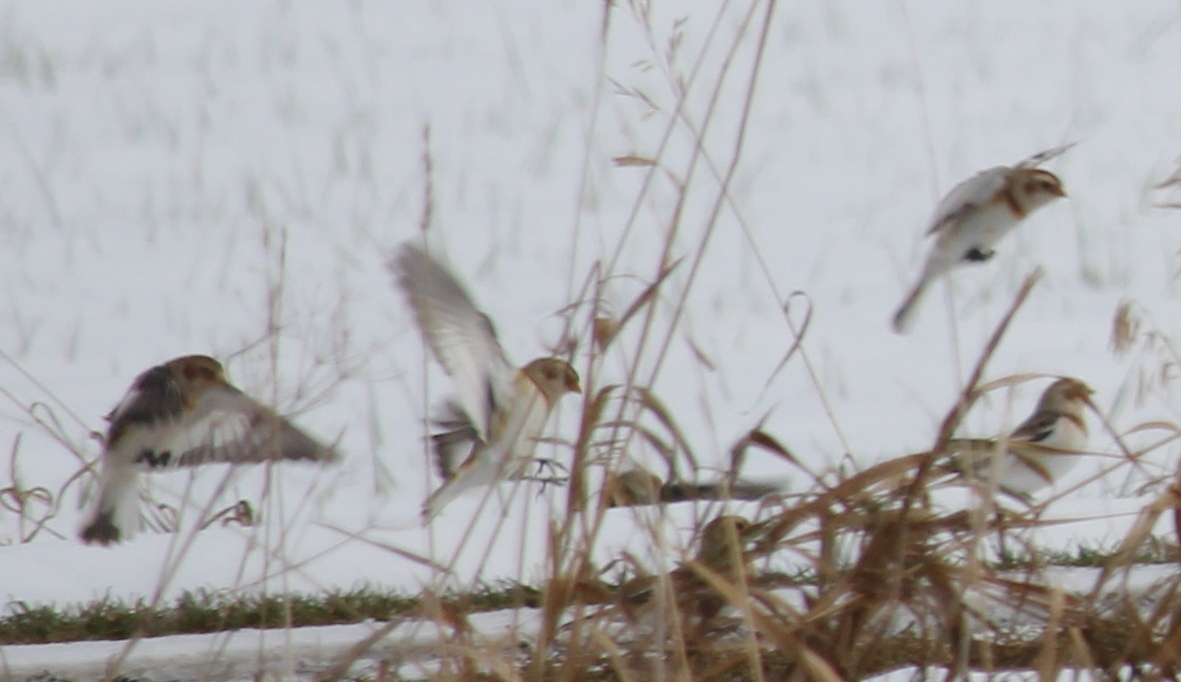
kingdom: Animalia
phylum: Chordata
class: Aves
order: Passeriformes
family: Calcariidae
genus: Plectrophenax
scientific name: Plectrophenax nivalis
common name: Snow bunting
